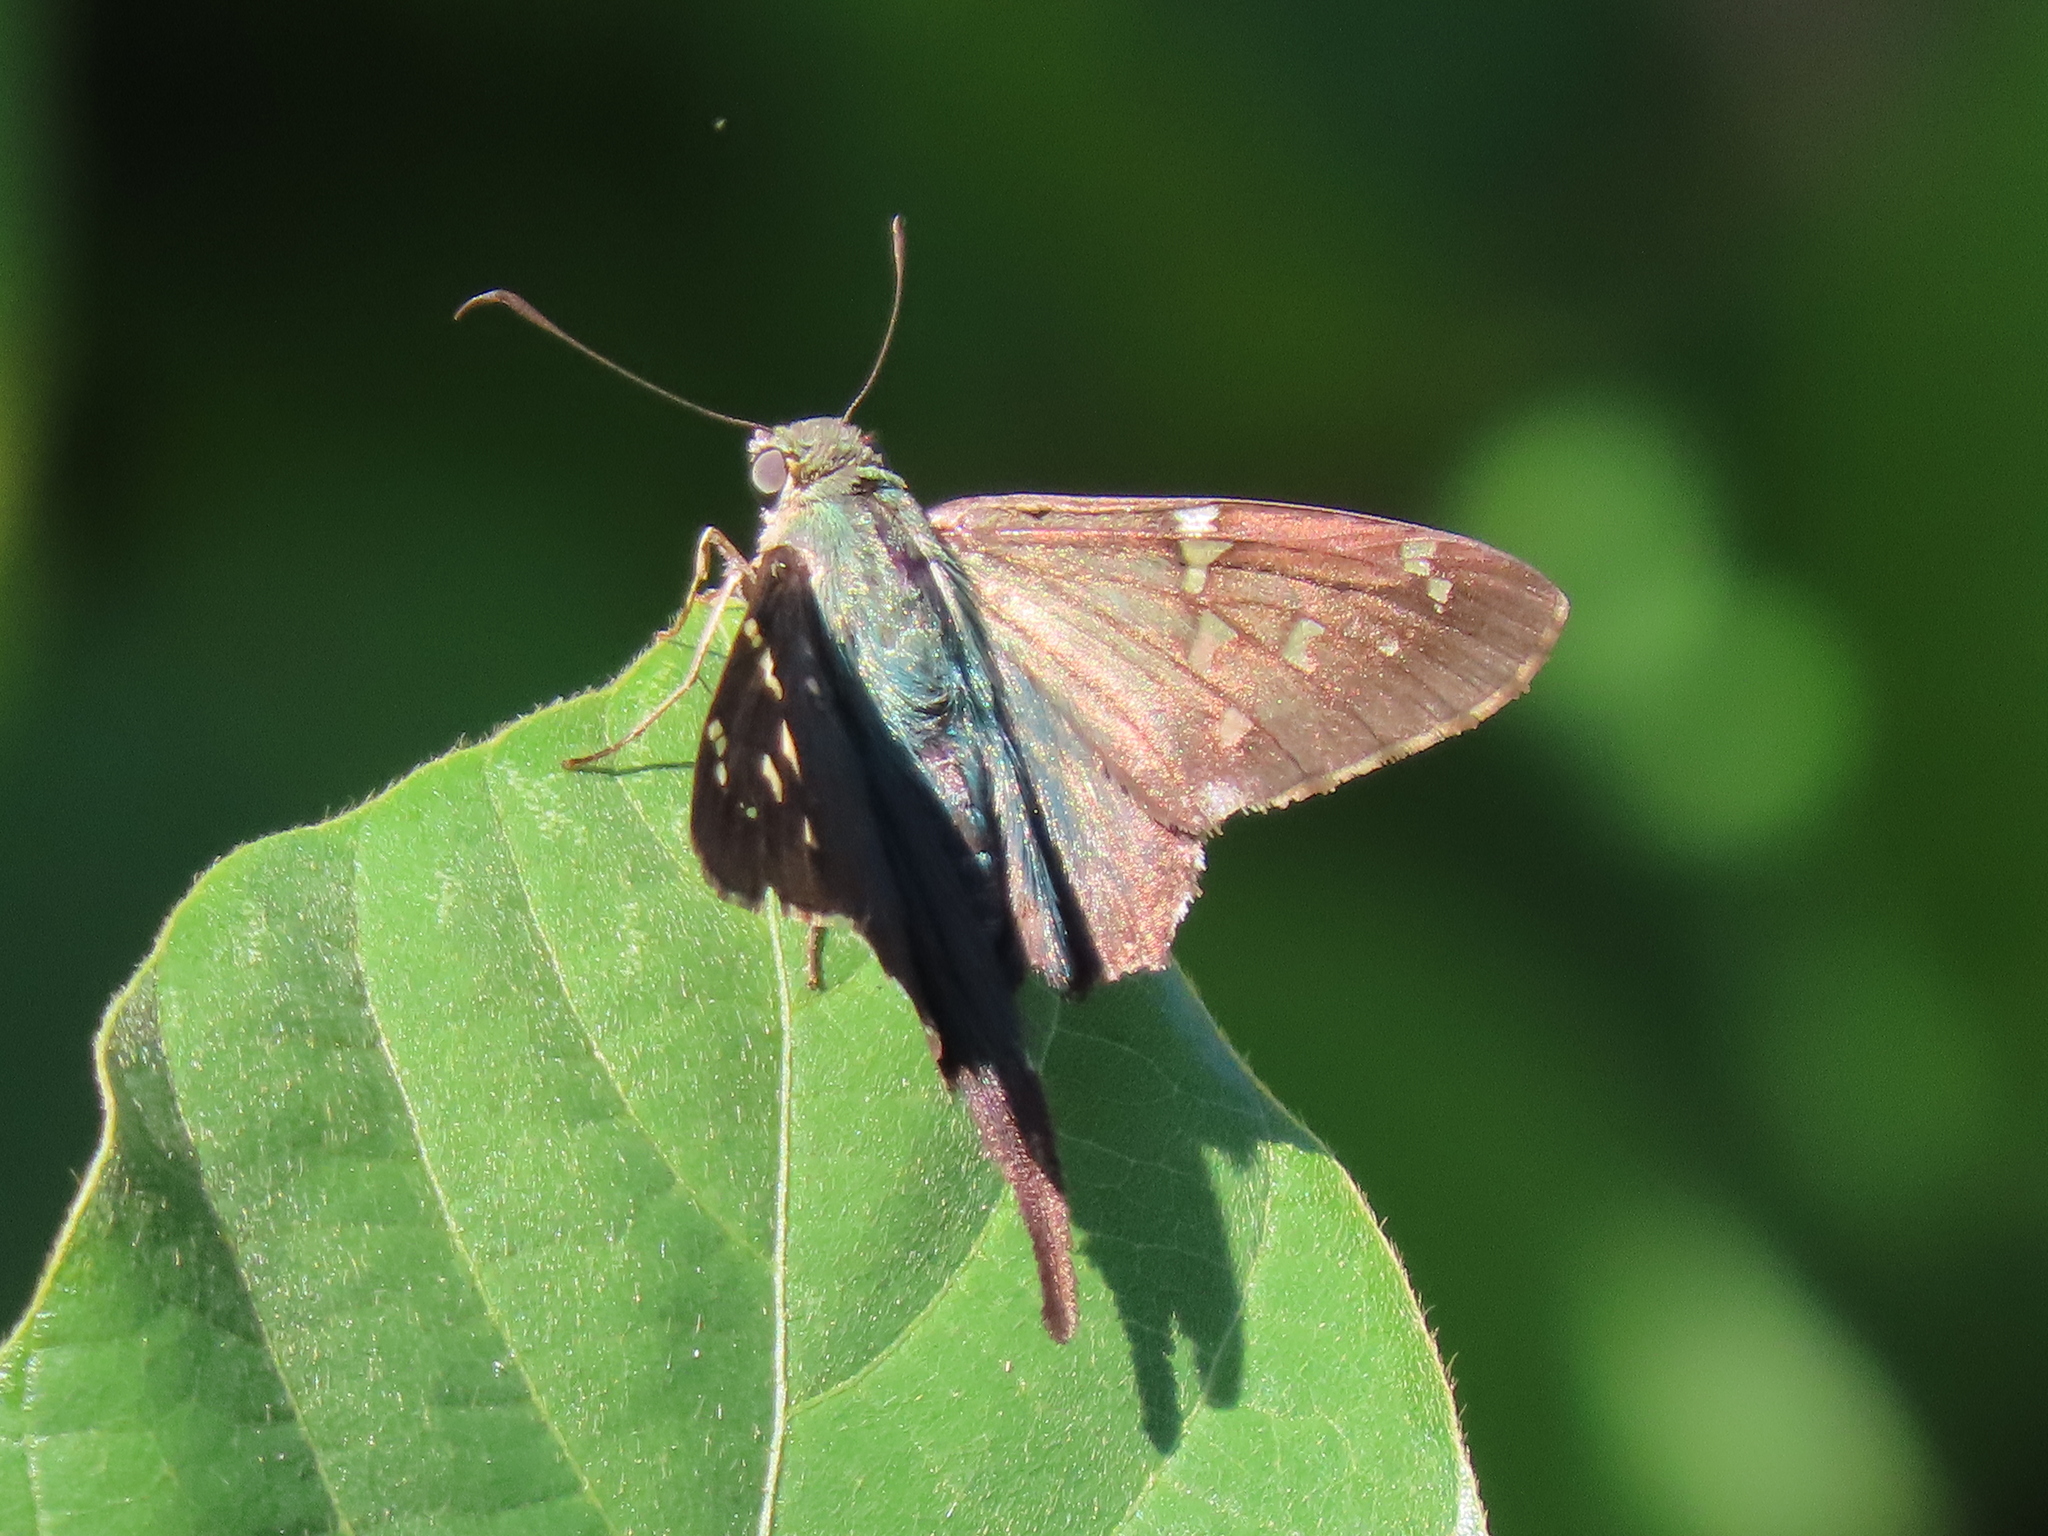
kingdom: Animalia
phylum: Arthropoda
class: Insecta
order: Lepidoptera
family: Hesperiidae
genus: Urbanus
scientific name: Urbanus proteus
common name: Long-tailed skipper
